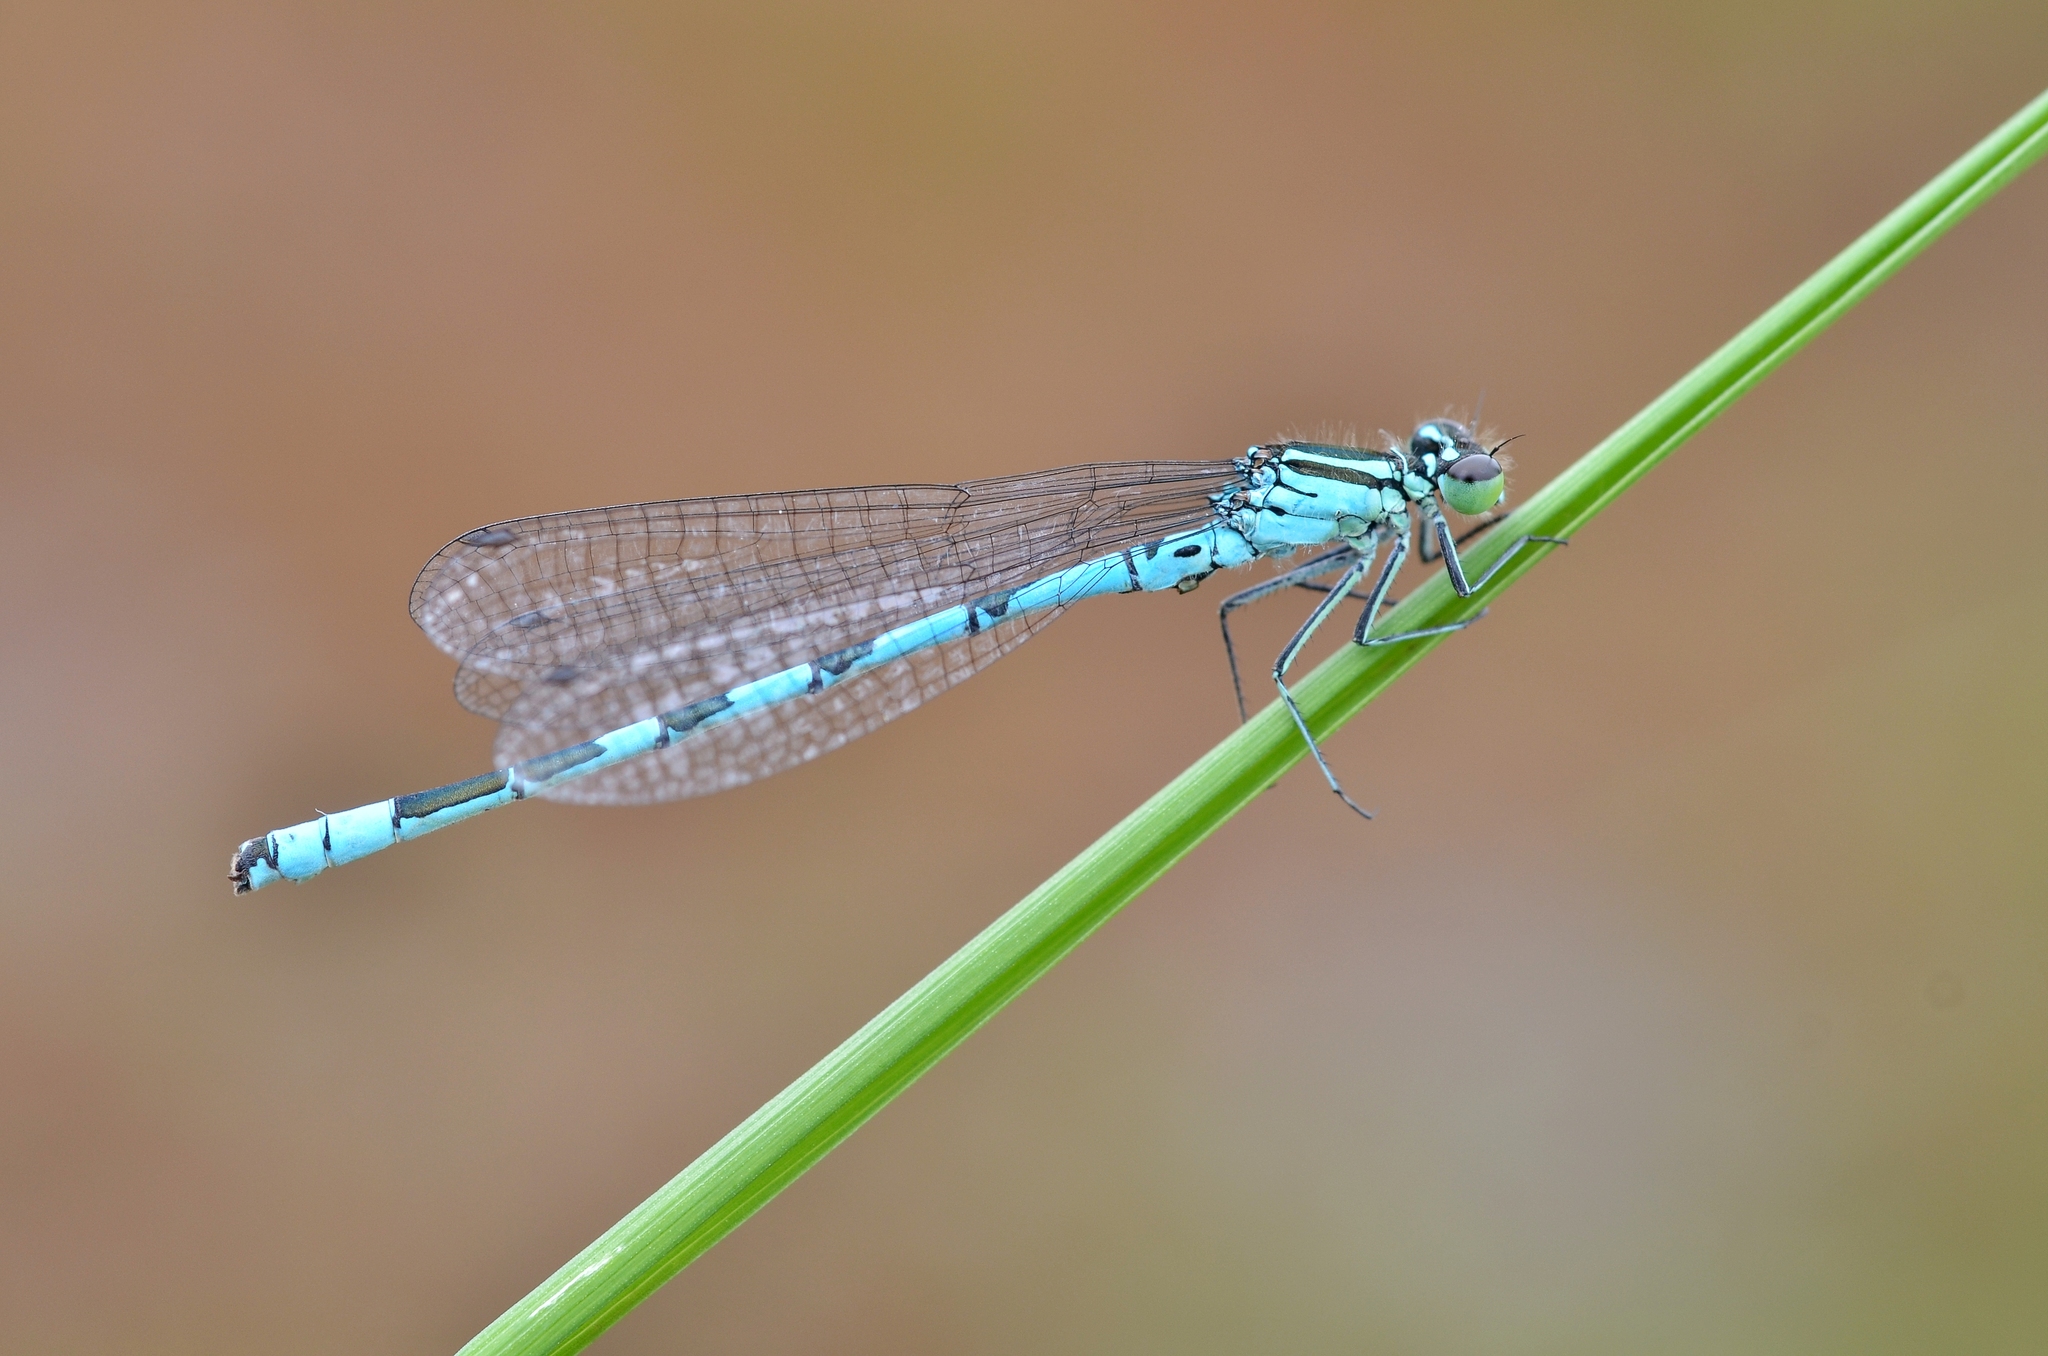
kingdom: Animalia
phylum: Arthropoda
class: Insecta
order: Odonata
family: Coenagrionidae
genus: Coenagrion
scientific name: Coenagrion hastulatum
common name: Spearhead bluet
